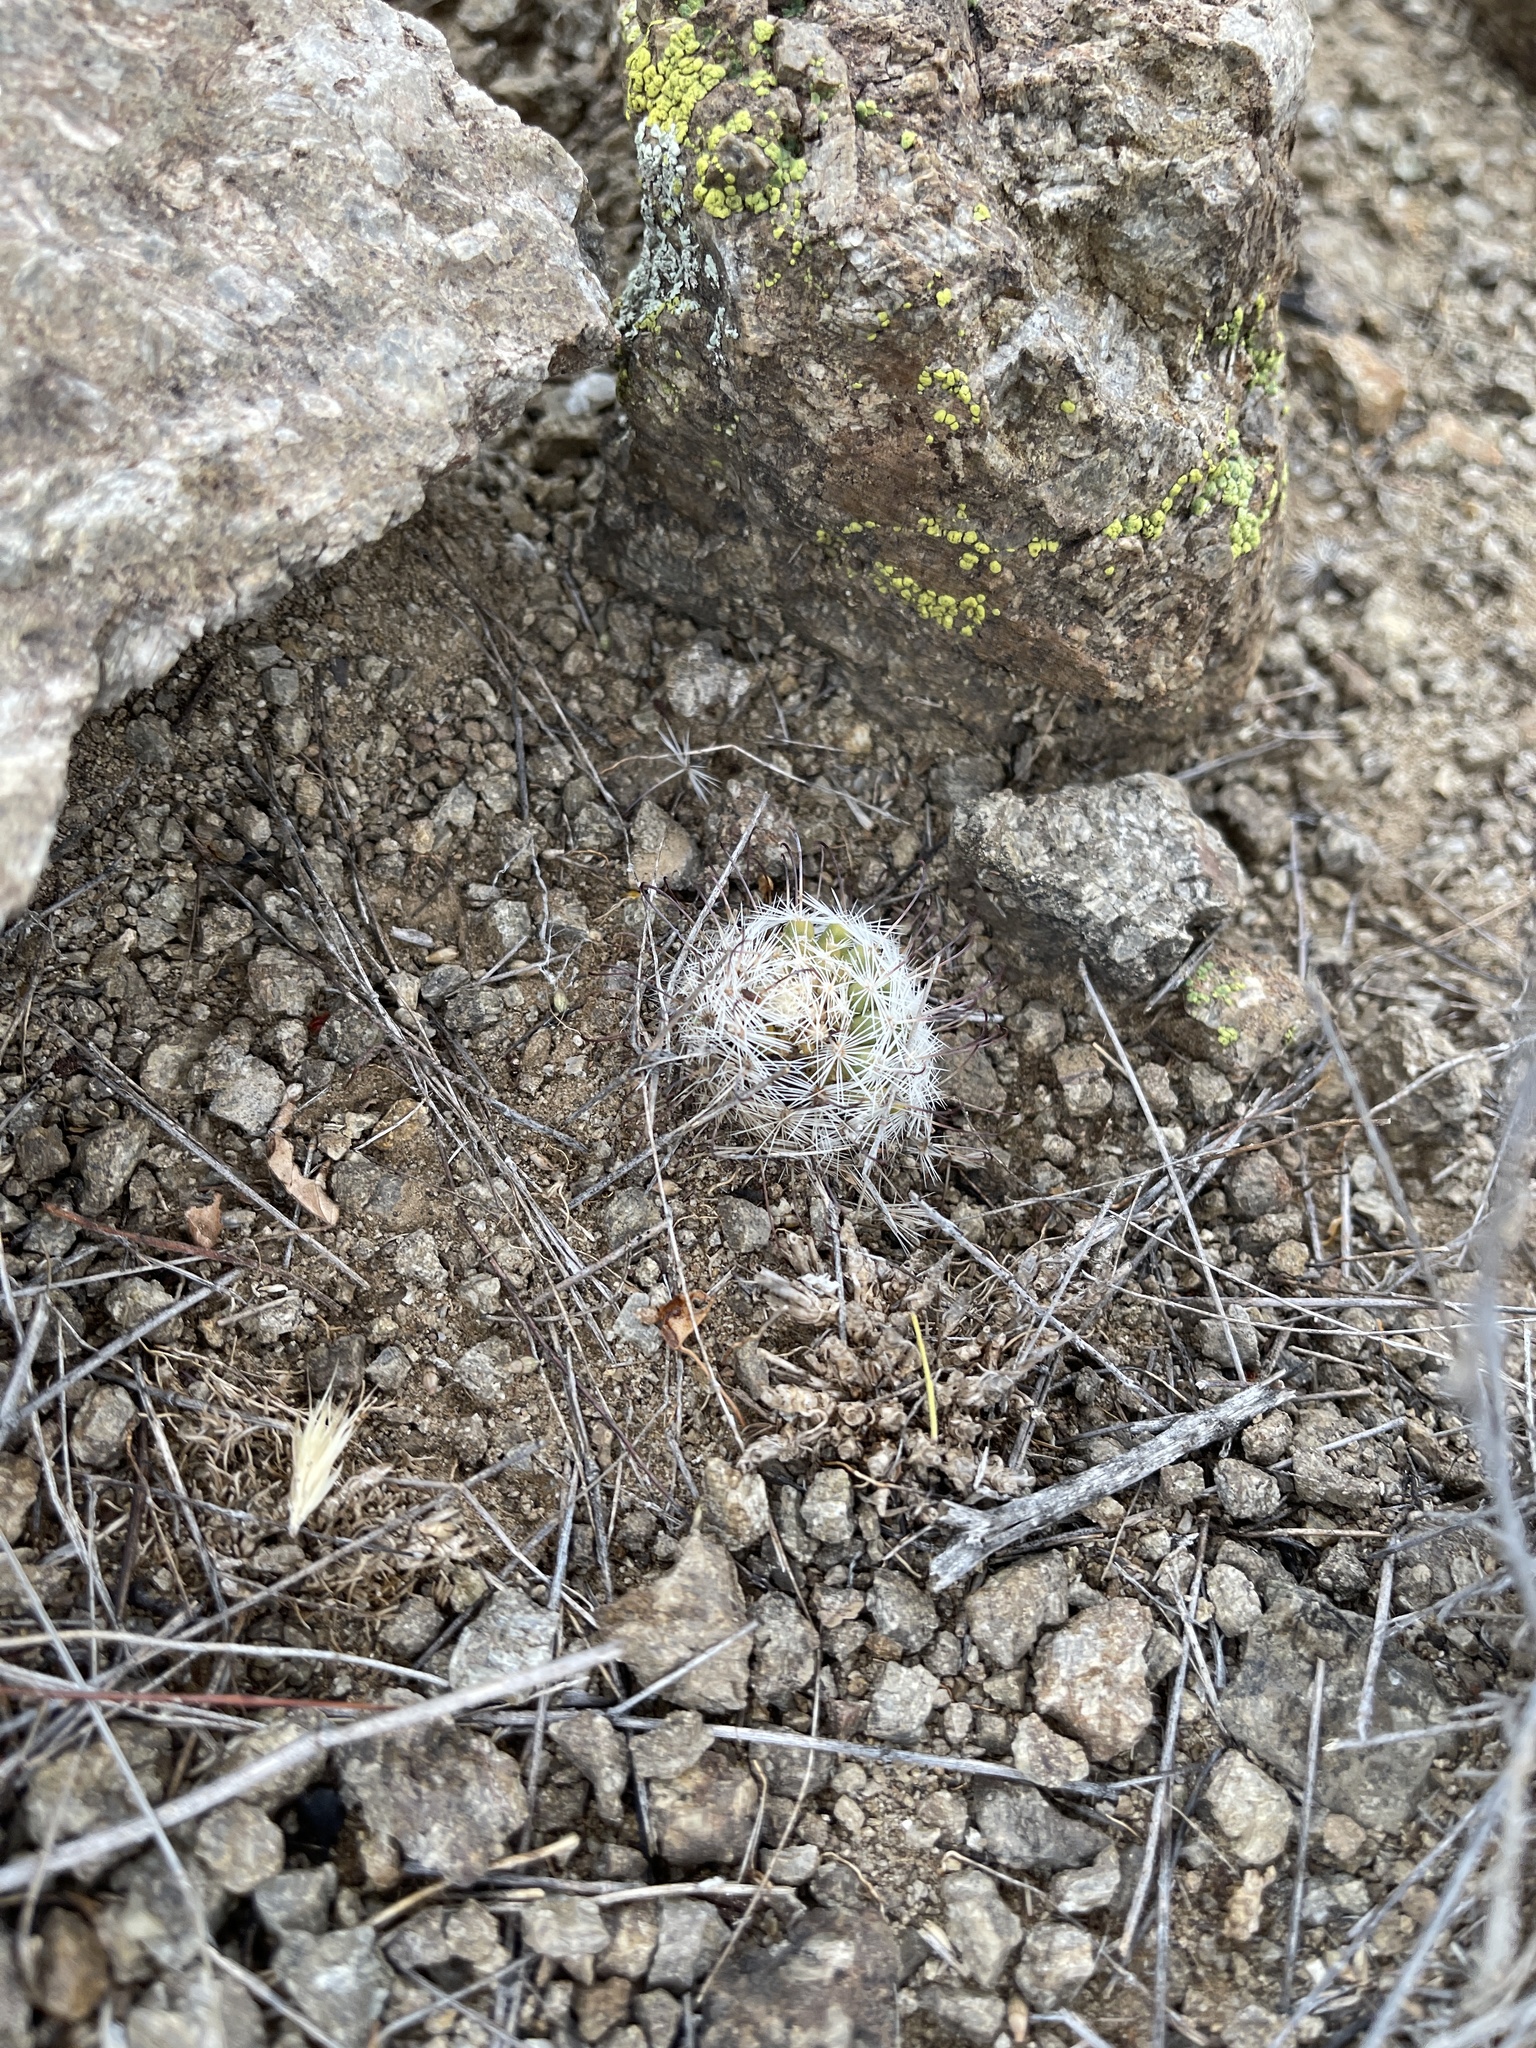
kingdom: Plantae
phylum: Tracheophyta
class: Magnoliopsida
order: Caryophyllales
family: Cactaceae
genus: Cochemiea
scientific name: Cochemiea grahamii
